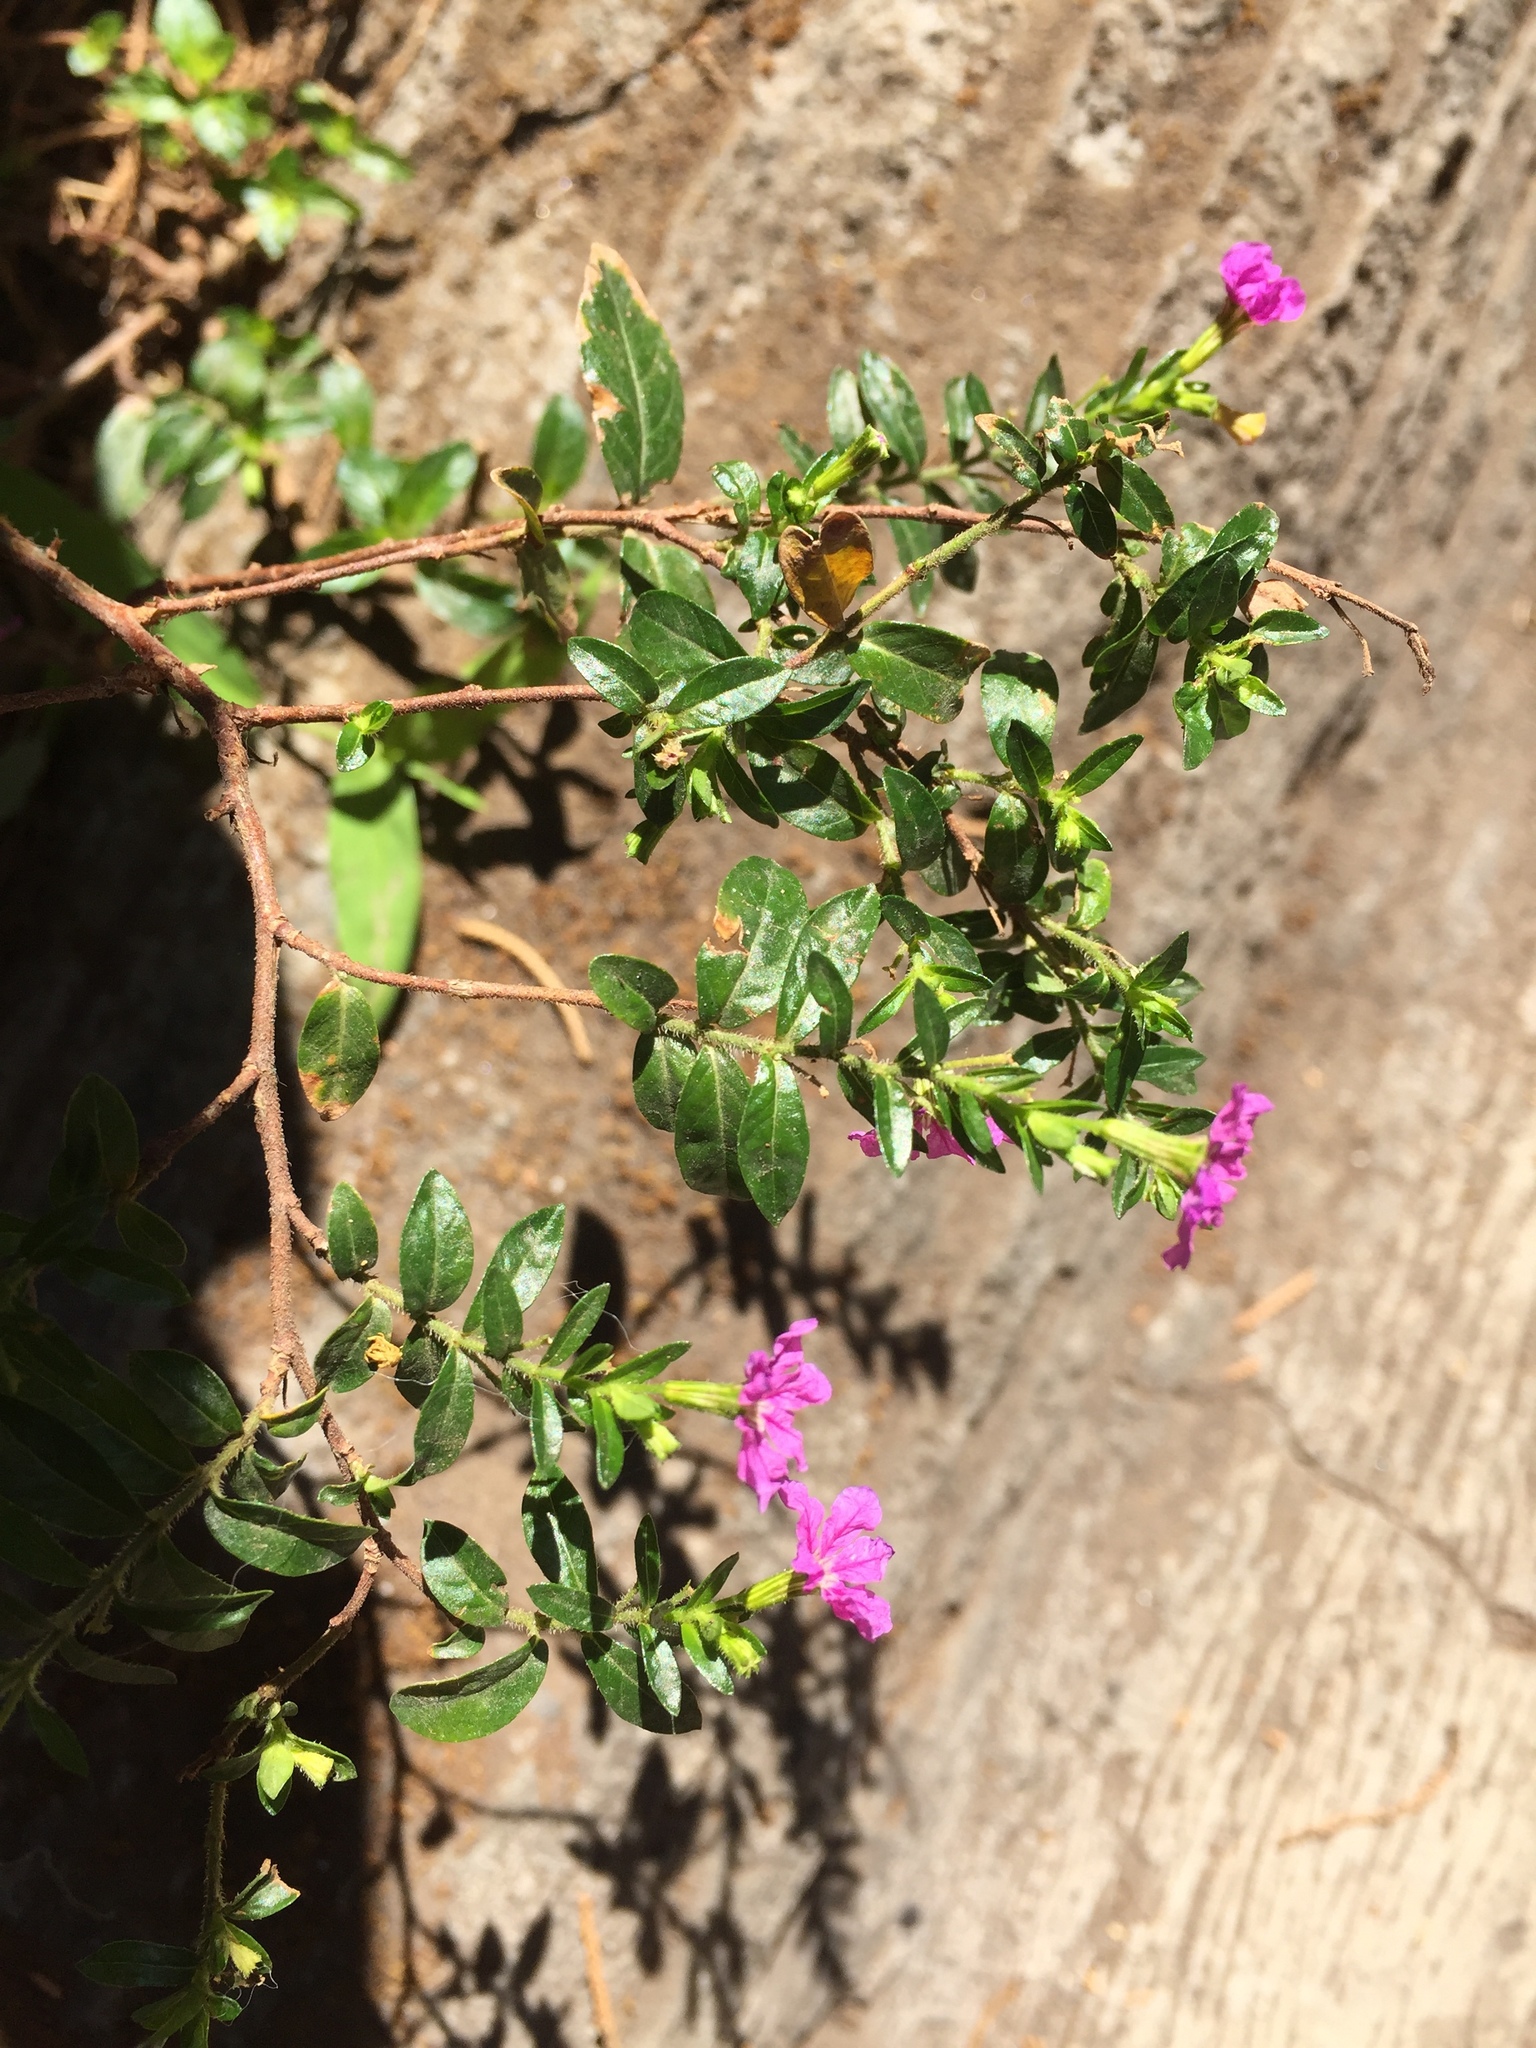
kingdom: Plantae
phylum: Tracheophyta
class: Magnoliopsida
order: Myrtales
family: Lythraceae
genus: Cuphea
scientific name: Cuphea hyssopifolia
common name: False heather
